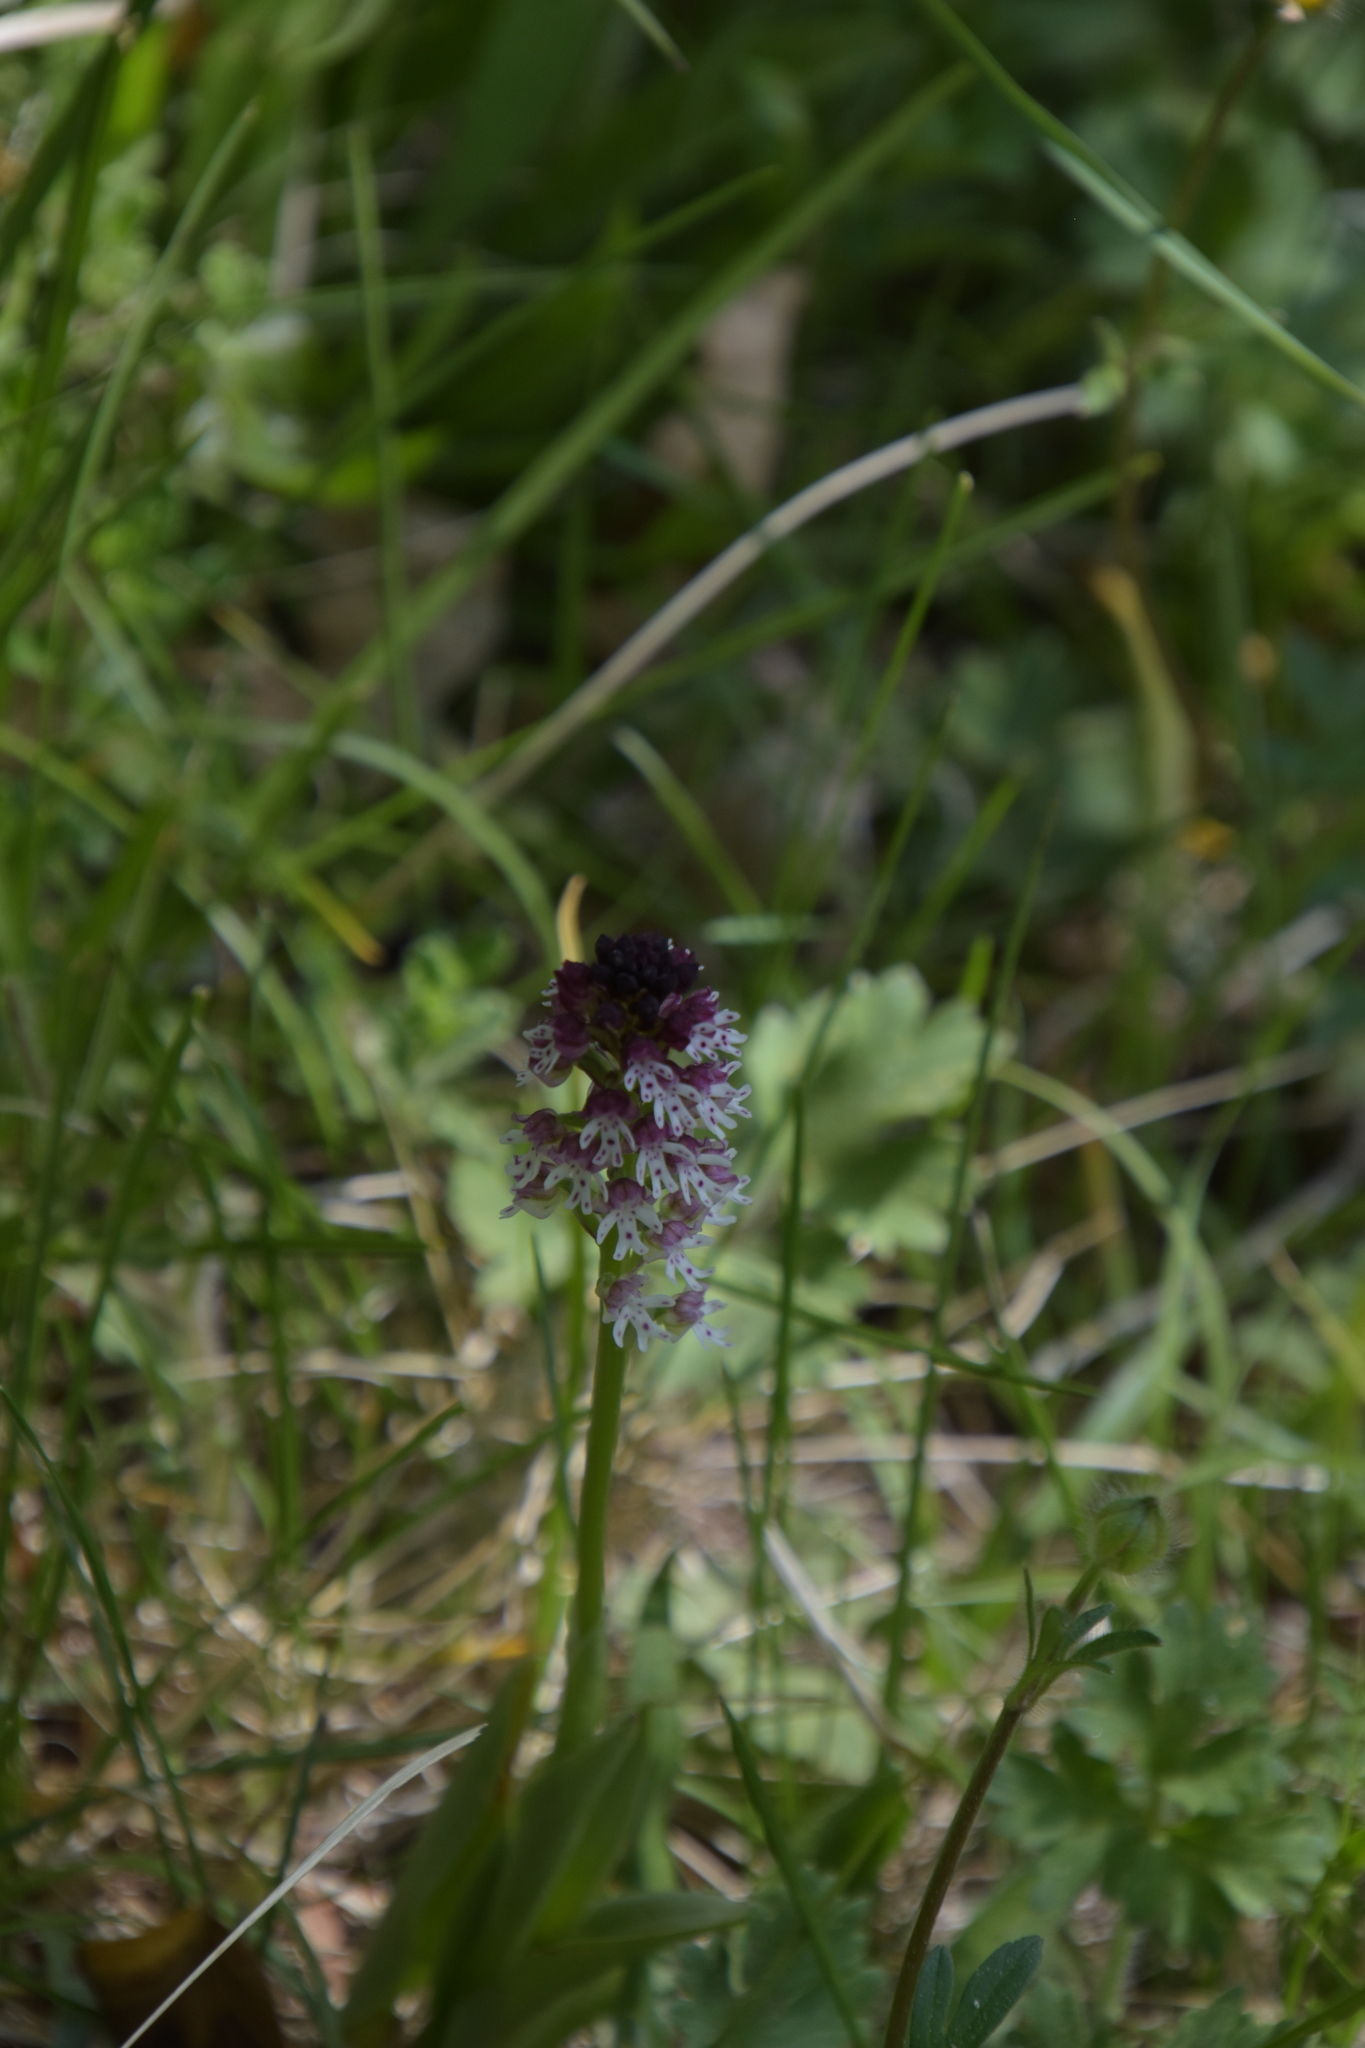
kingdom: Plantae
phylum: Tracheophyta
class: Liliopsida
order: Asparagales
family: Orchidaceae
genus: Neotinea
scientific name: Neotinea ustulata
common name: Burnt orchid
